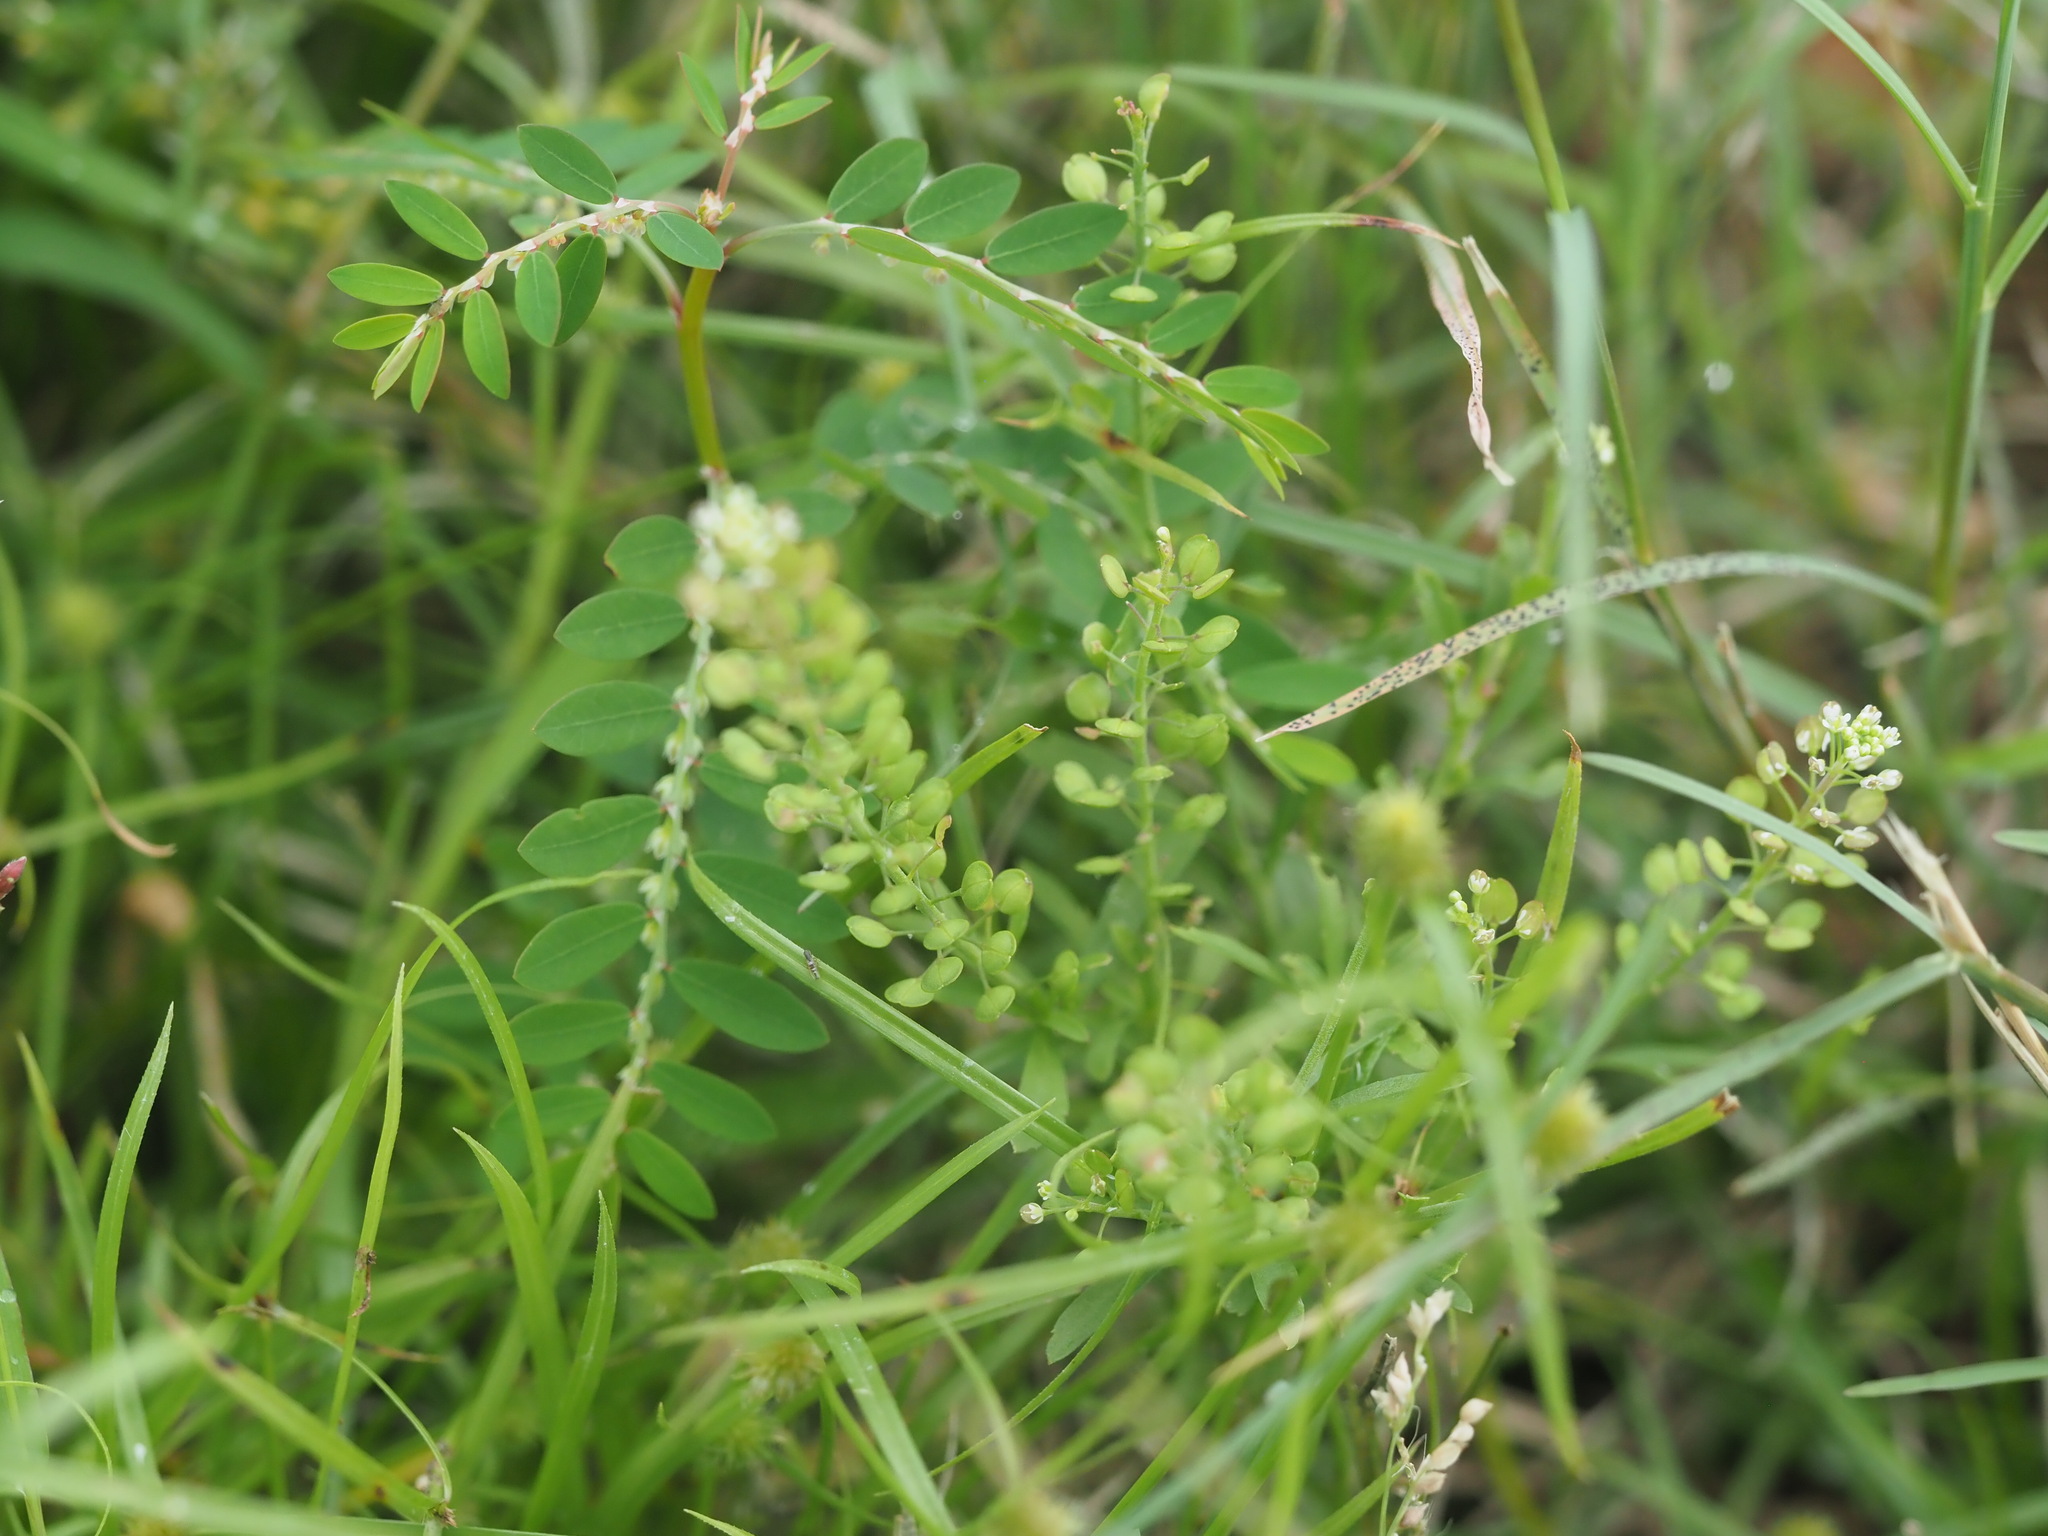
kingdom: Plantae
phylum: Tracheophyta
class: Magnoliopsida
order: Brassicales
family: Brassicaceae
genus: Lepidium
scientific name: Lepidium virginicum
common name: Least pepperwort
